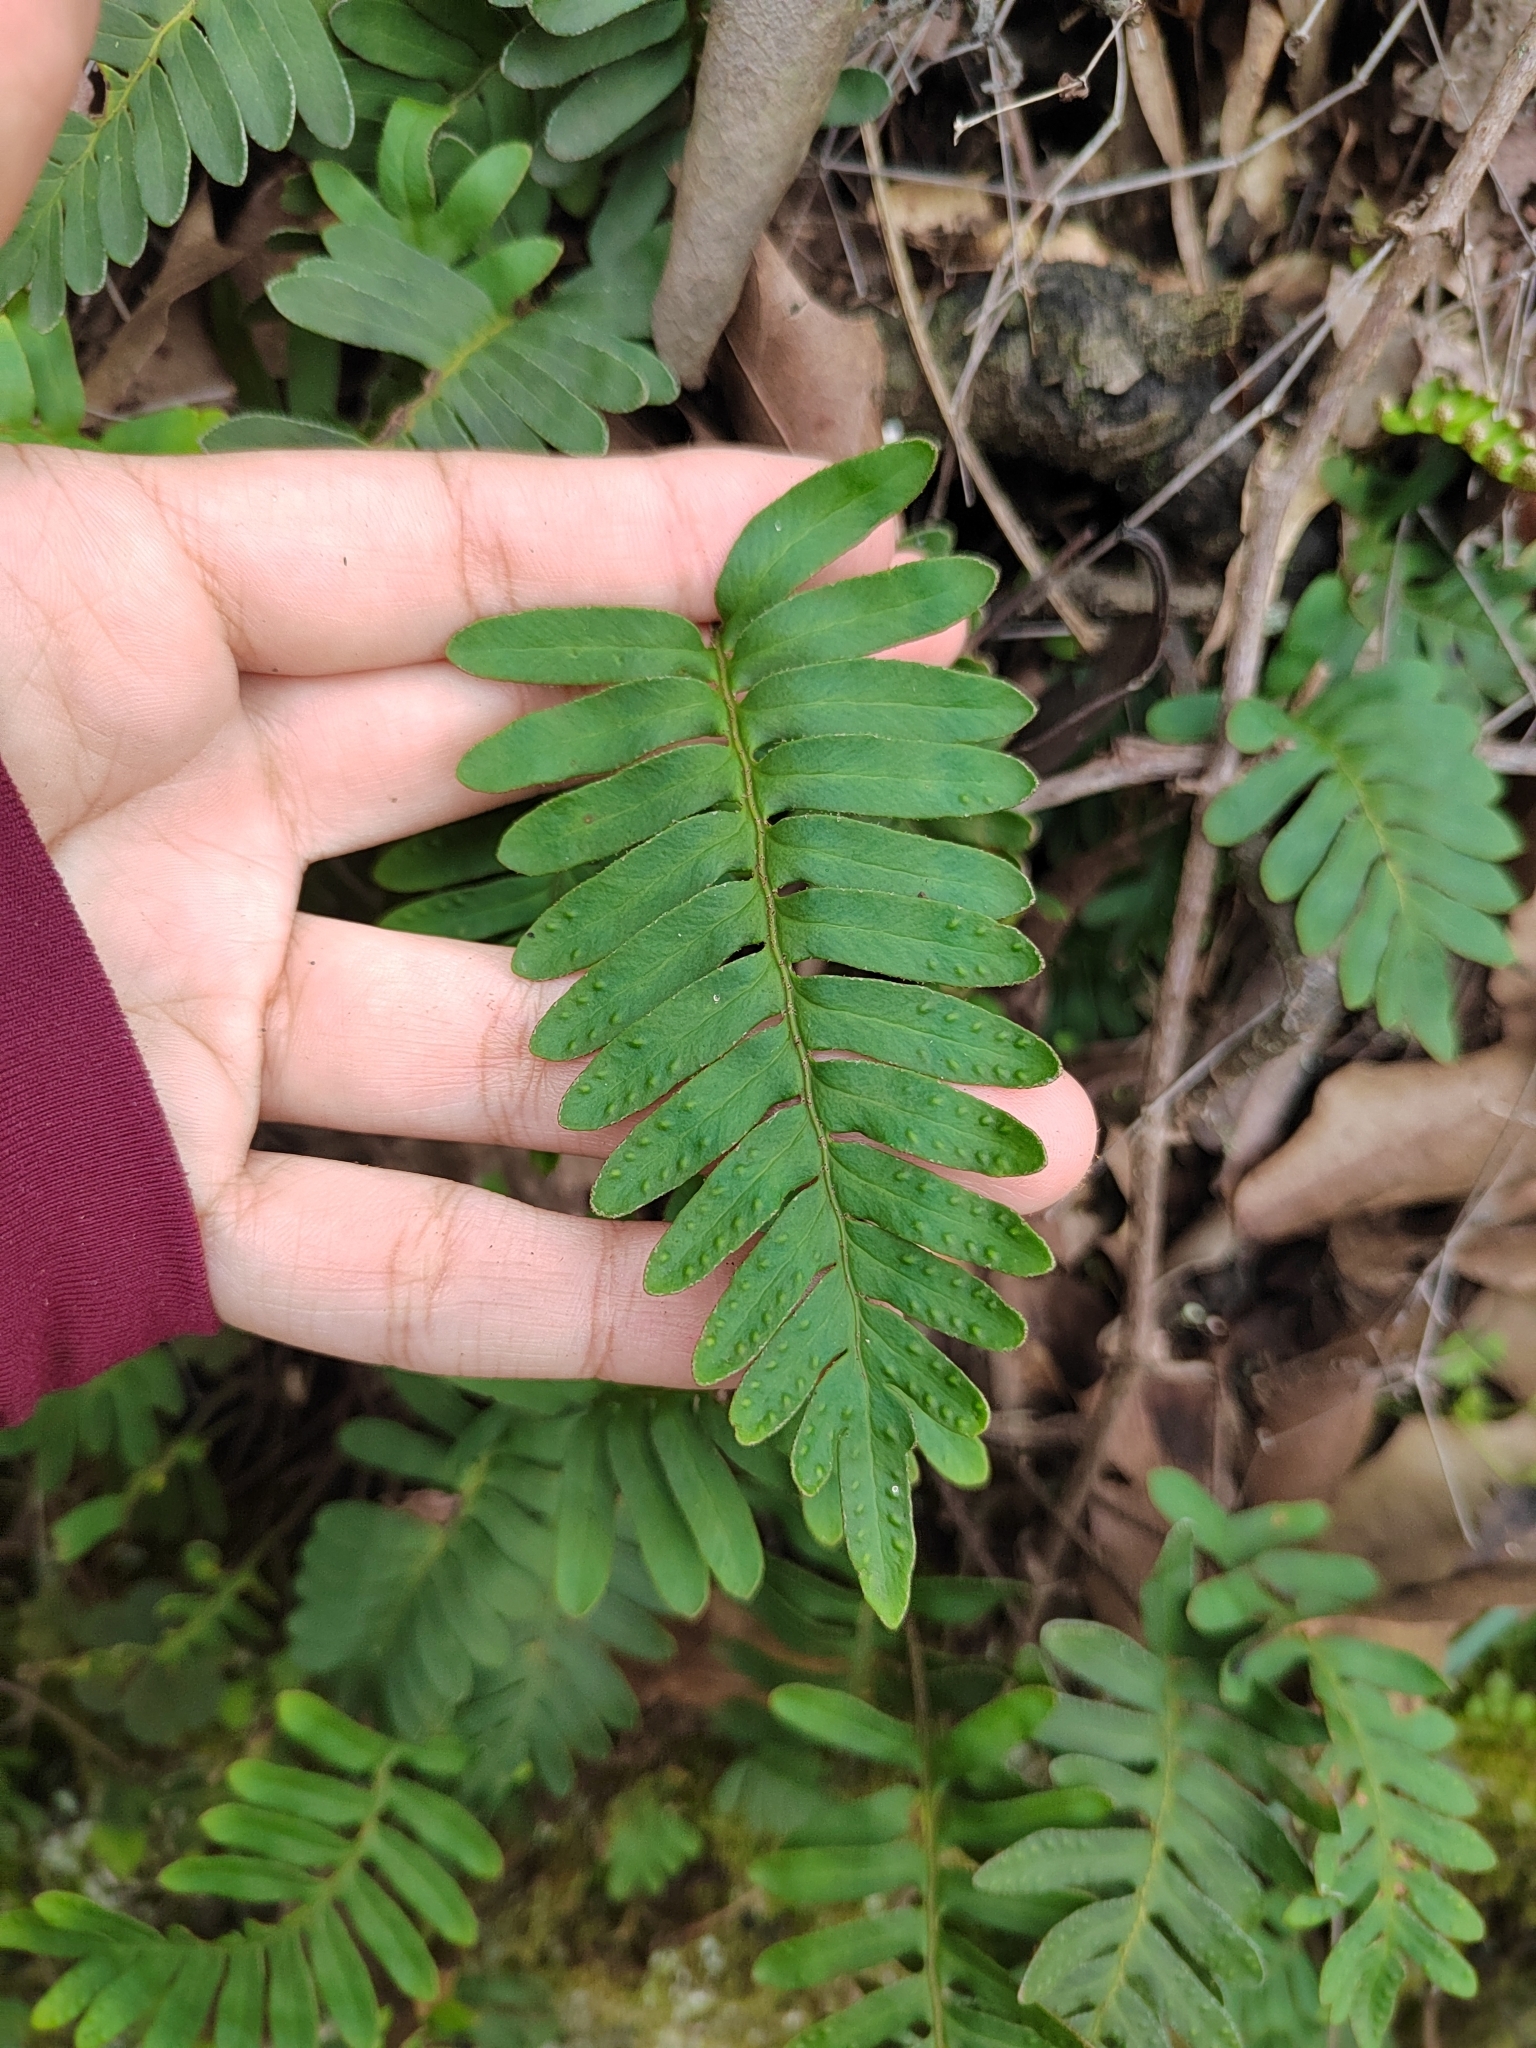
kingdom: Plantae
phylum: Tracheophyta
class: Polypodiopsida
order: Polypodiales
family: Polypodiaceae
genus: Pleopeltis
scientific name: Pleopeltis michauxiana
